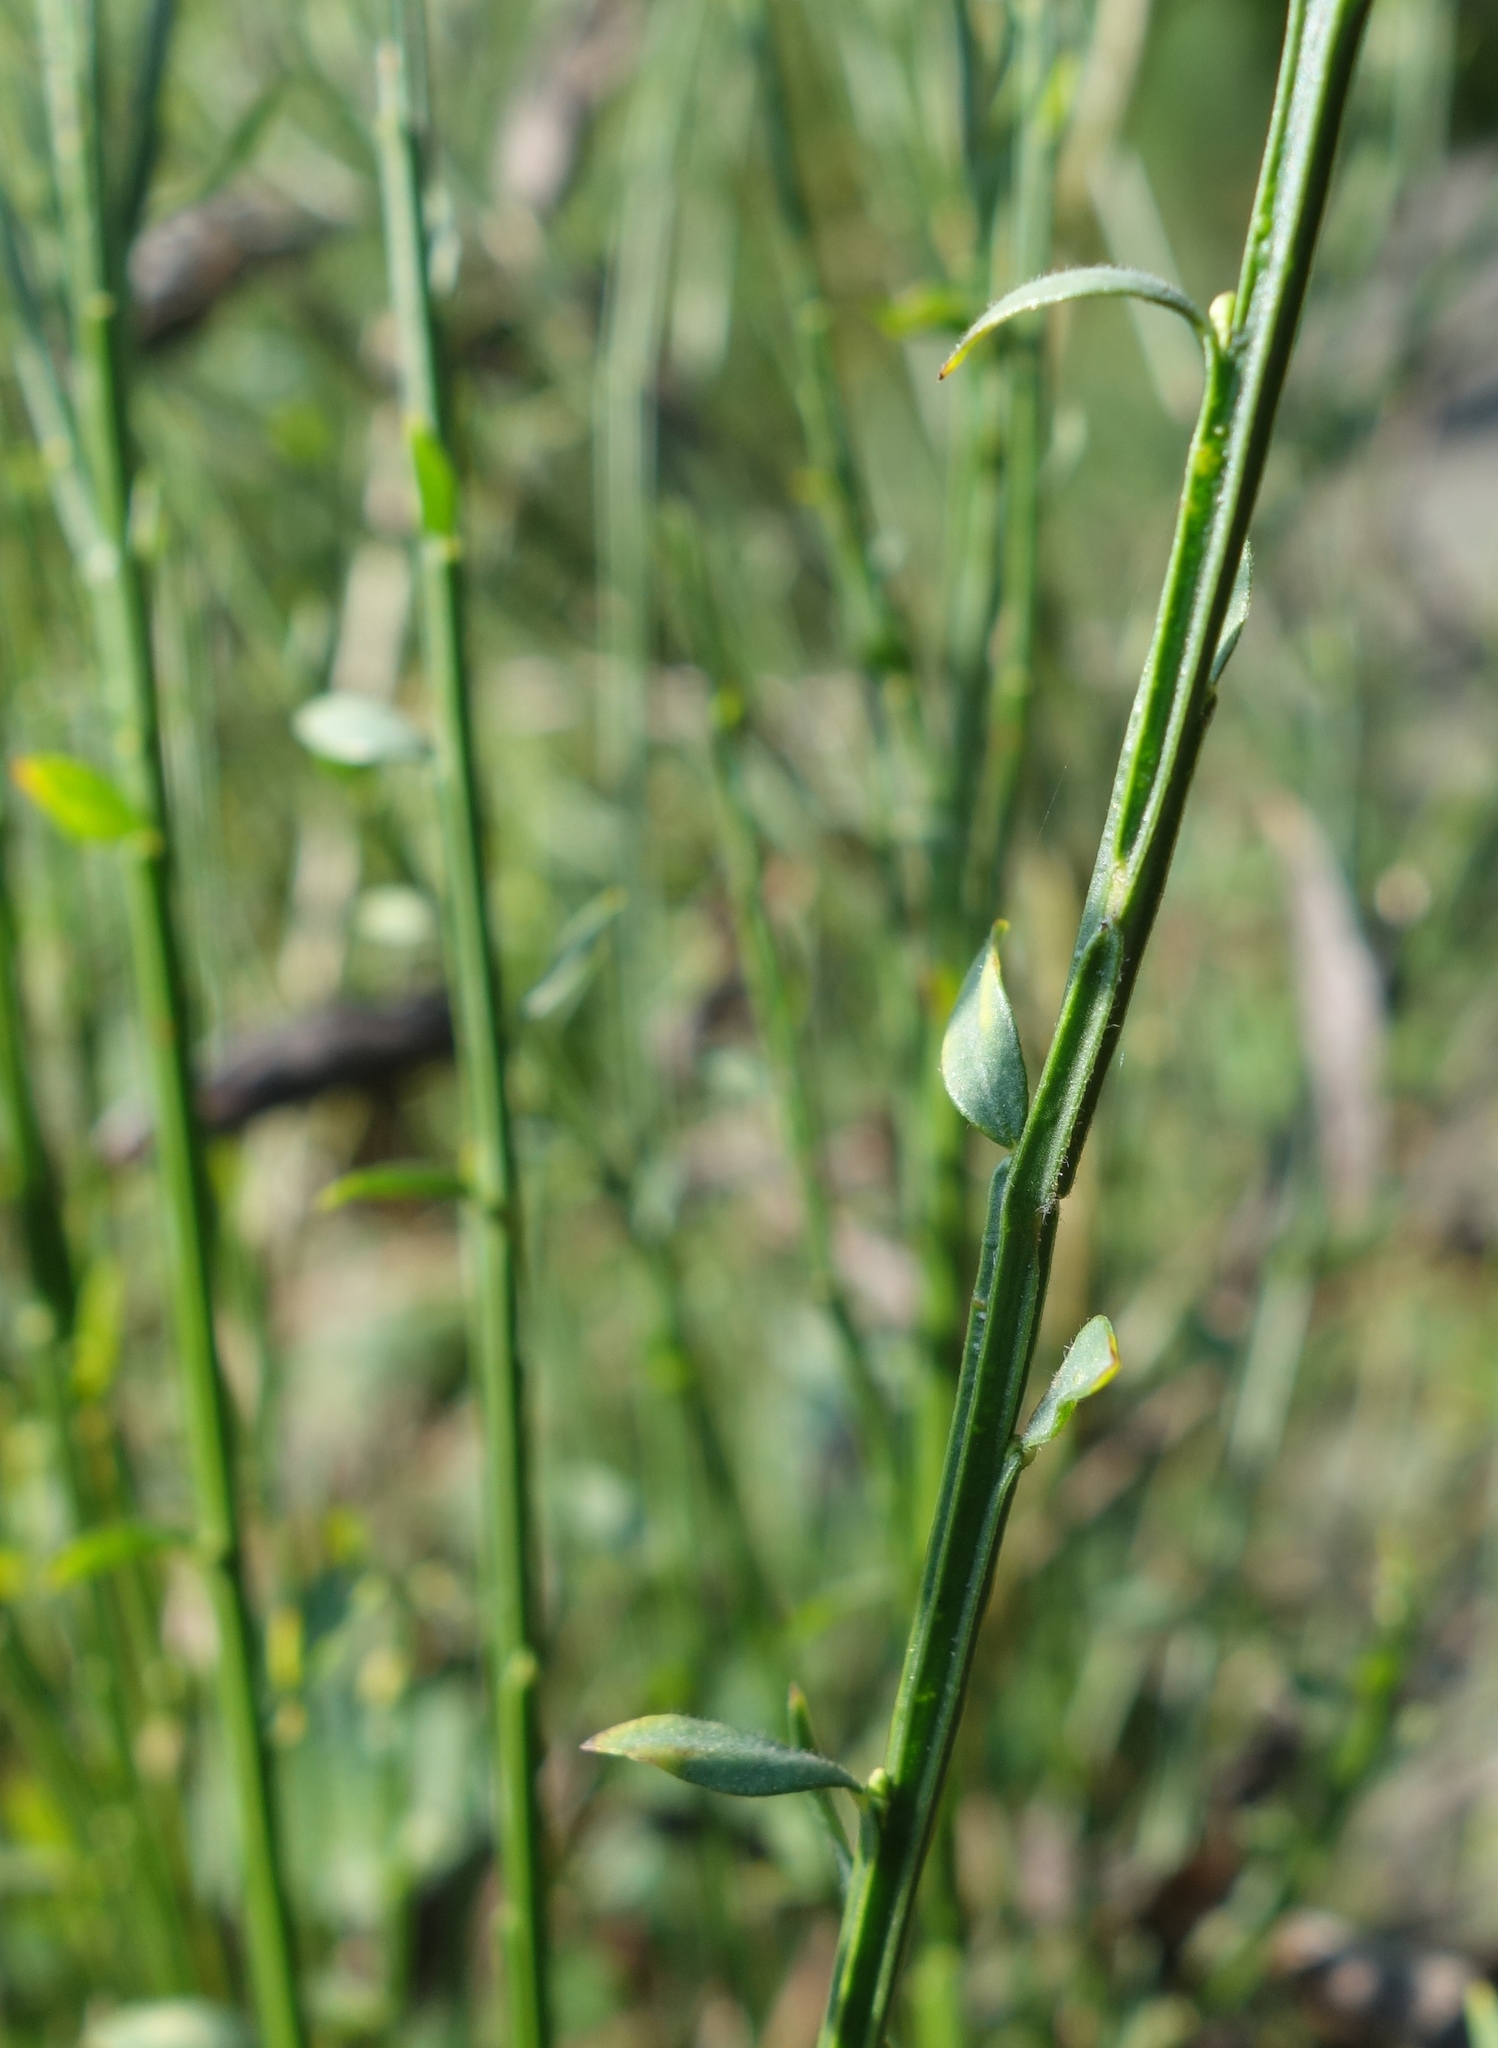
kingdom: Plantae
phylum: Tracheophyta
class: Magnoliopsida
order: Fabales
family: Fabaceae
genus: Cytisus
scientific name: Cytisus scoparius
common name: Scotch broom
